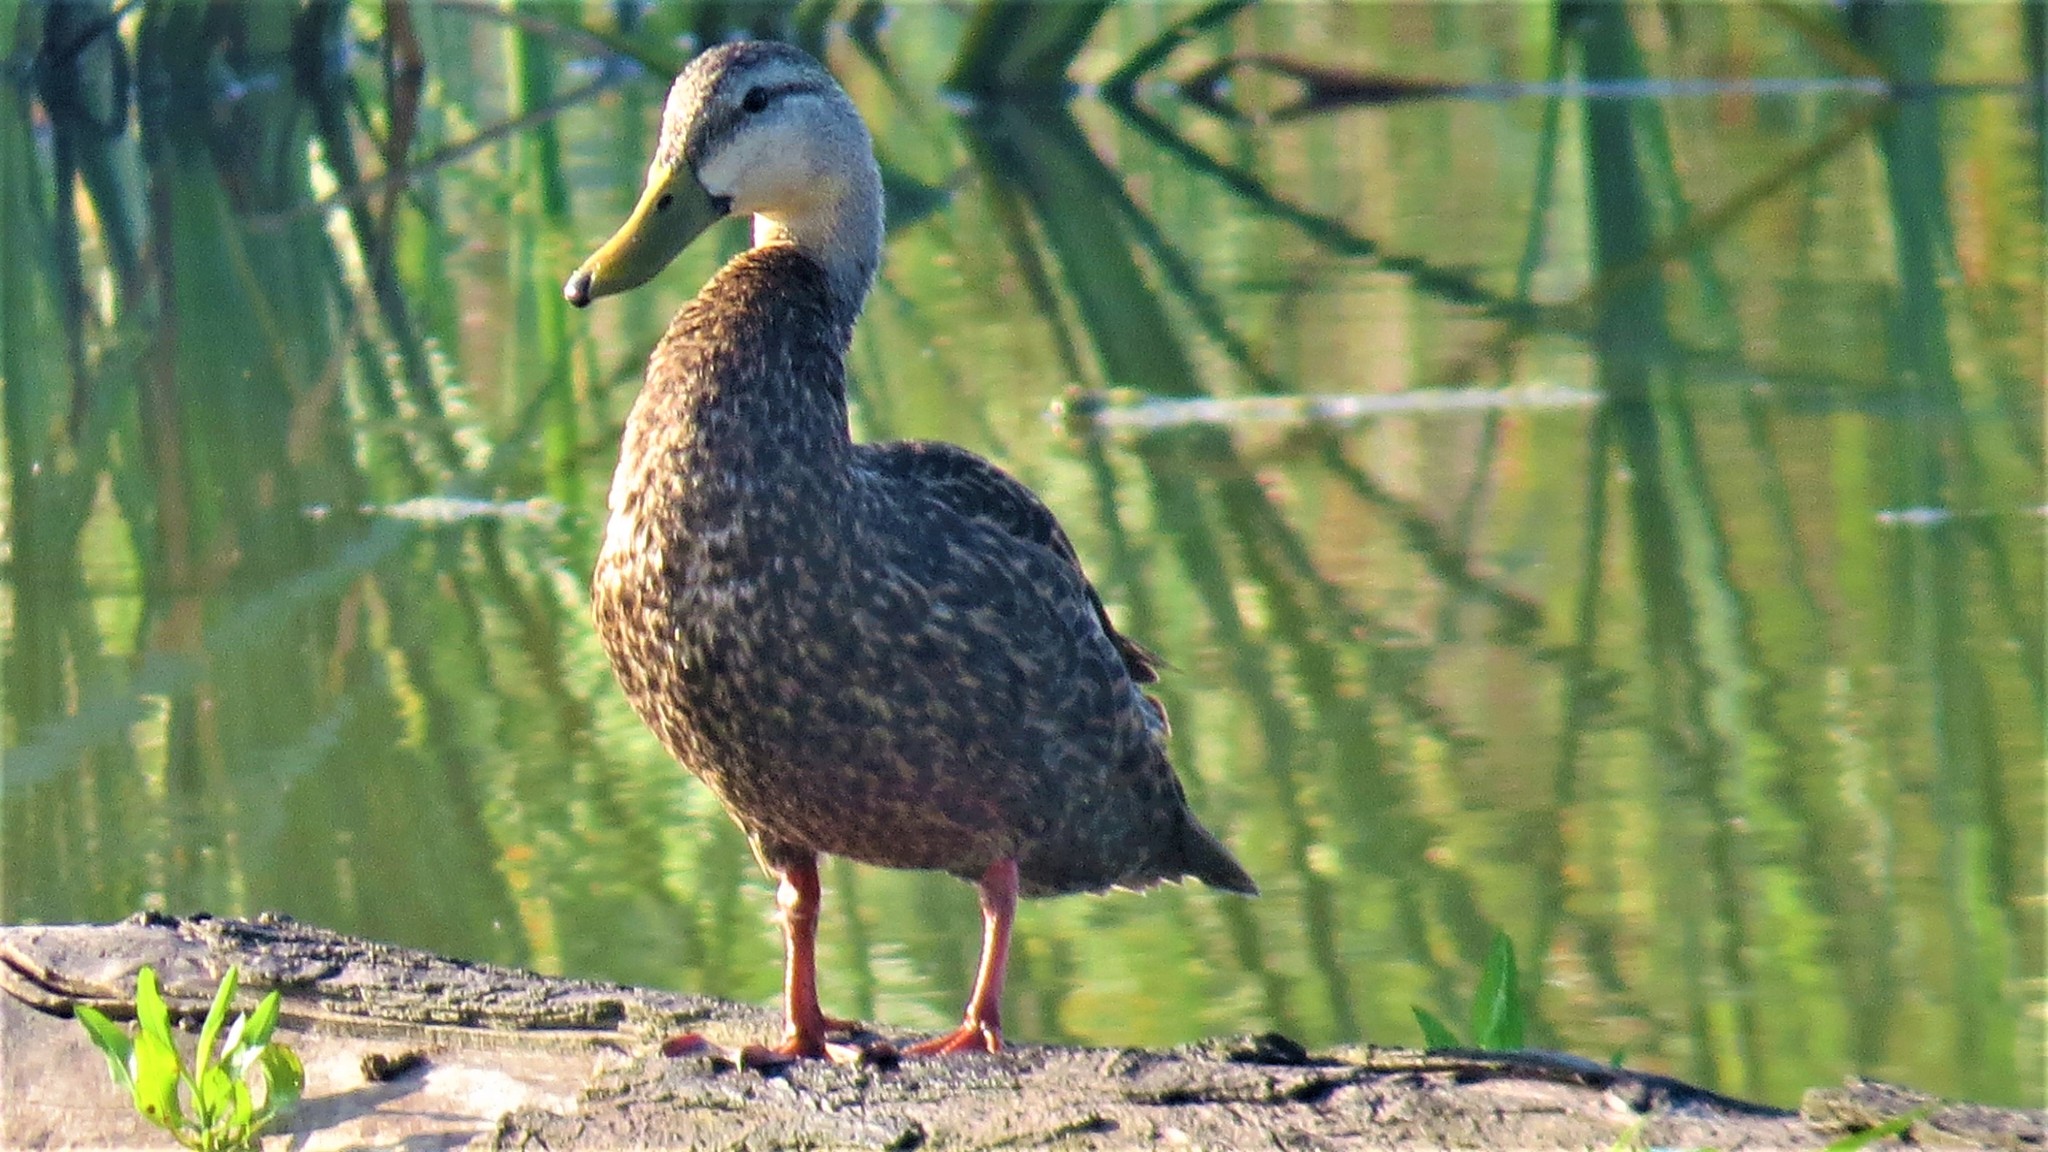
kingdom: Animalia
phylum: Chordata
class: Aves
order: Anseriformes
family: Anatidae
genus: Anas
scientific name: Anas fulvigula
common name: Mottled duck
